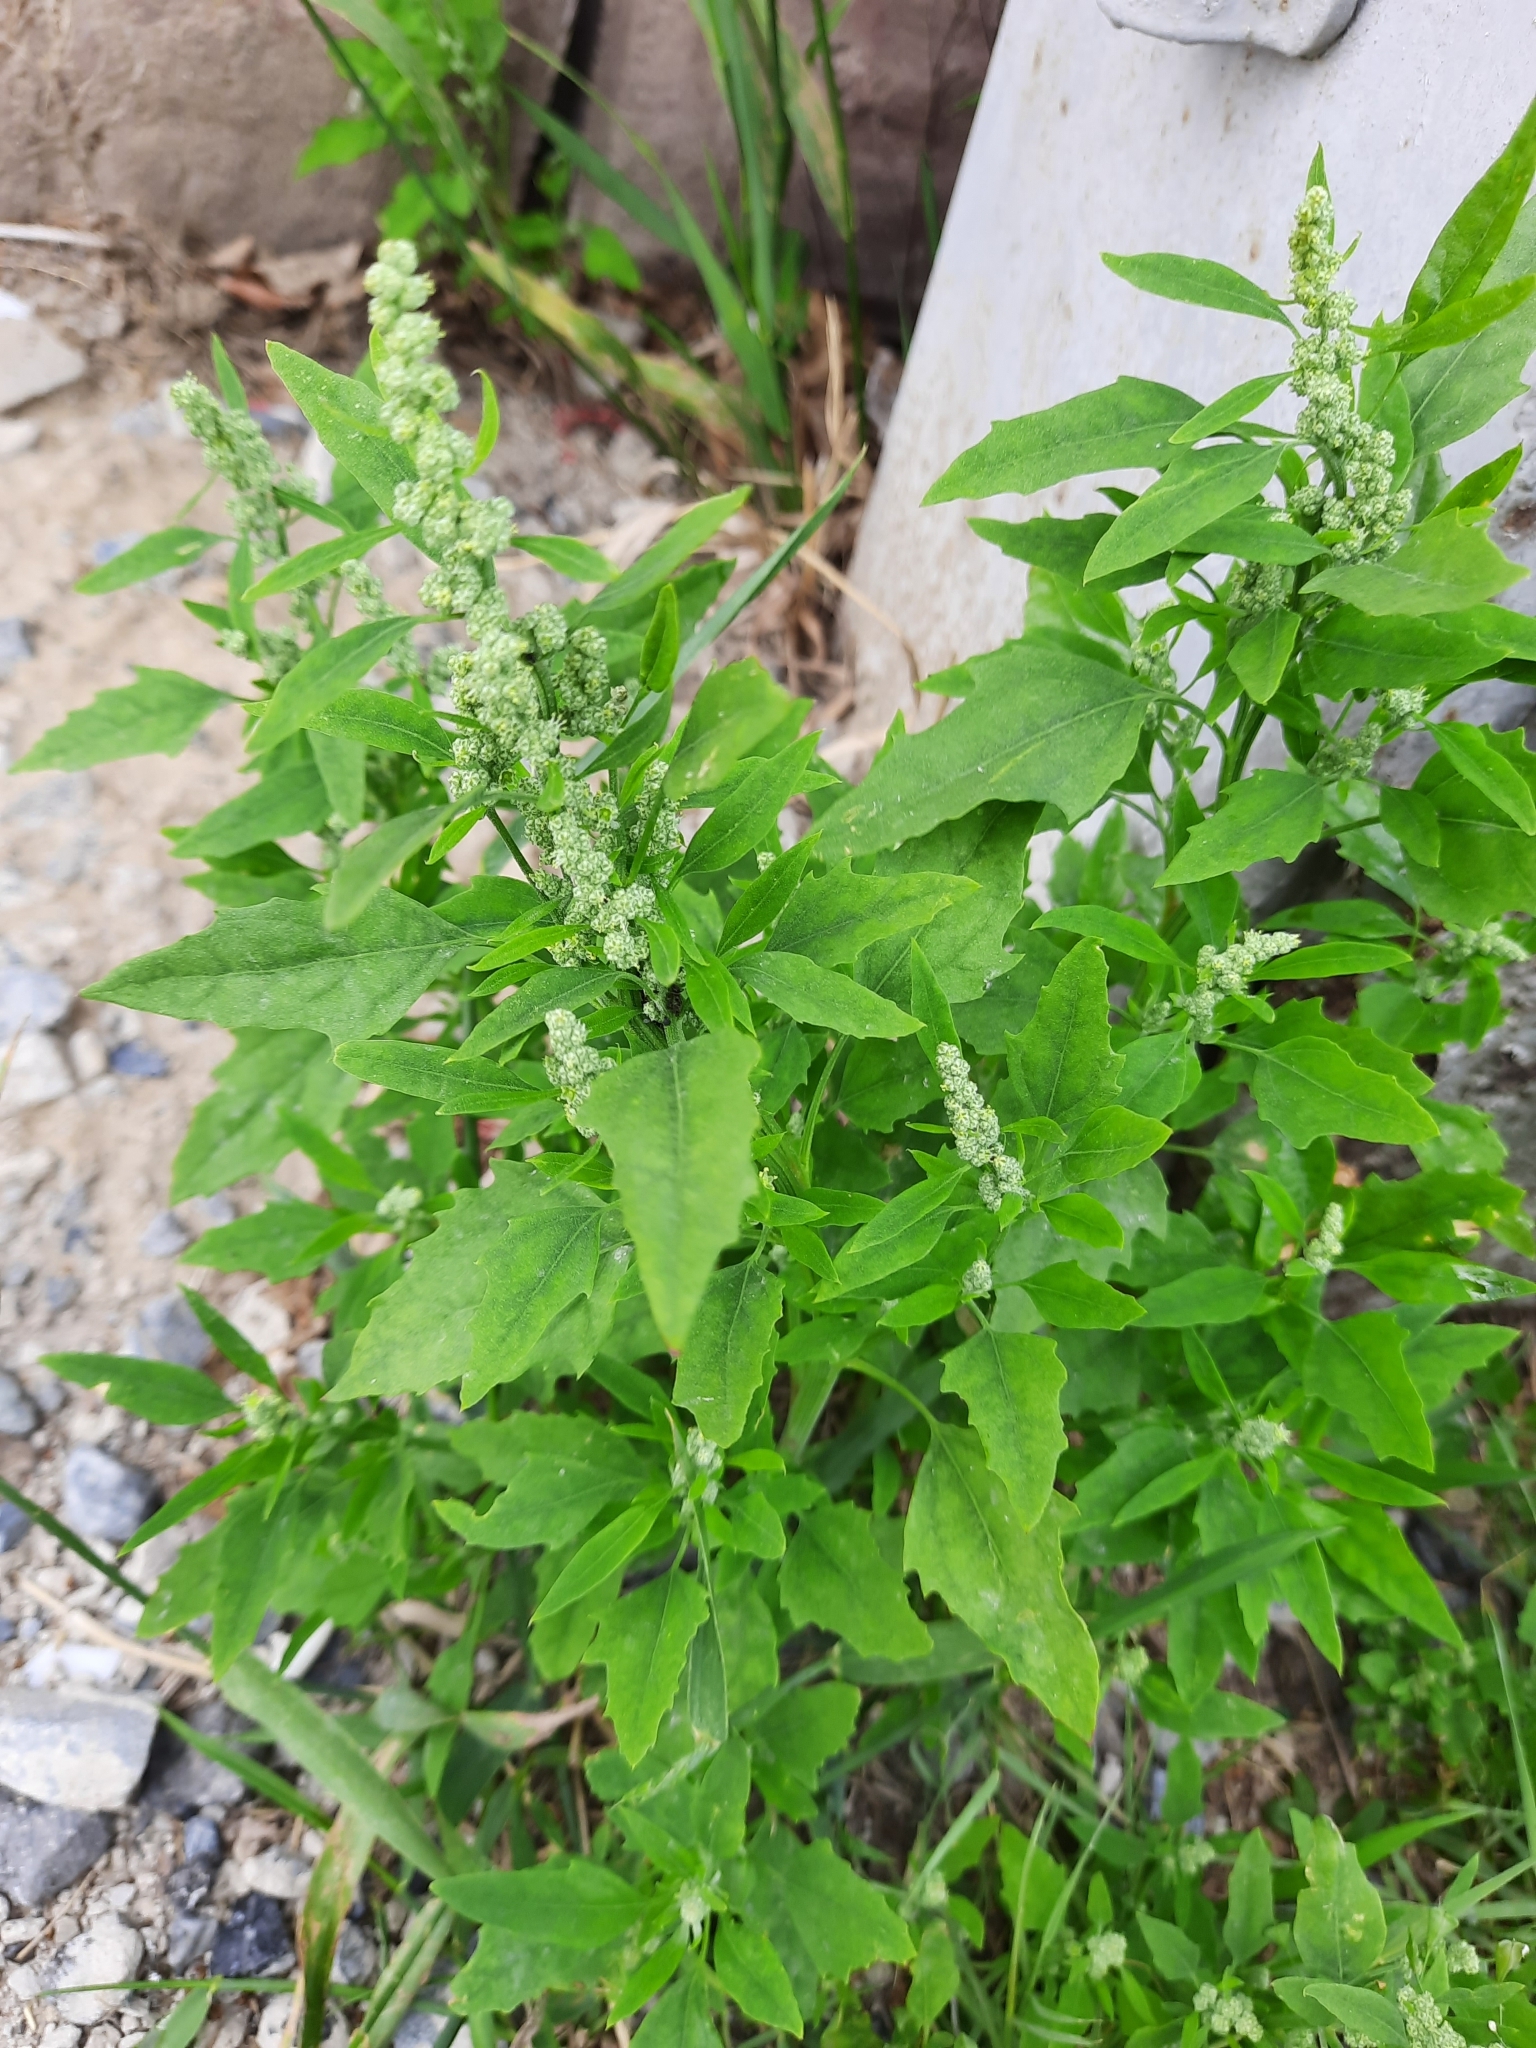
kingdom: Plantae
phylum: Tracheophyta
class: Magnoliopsida
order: Caryophyllales
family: Amaranthaceae
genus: Chenopodium
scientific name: Chenopodium album
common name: Fat-hen
